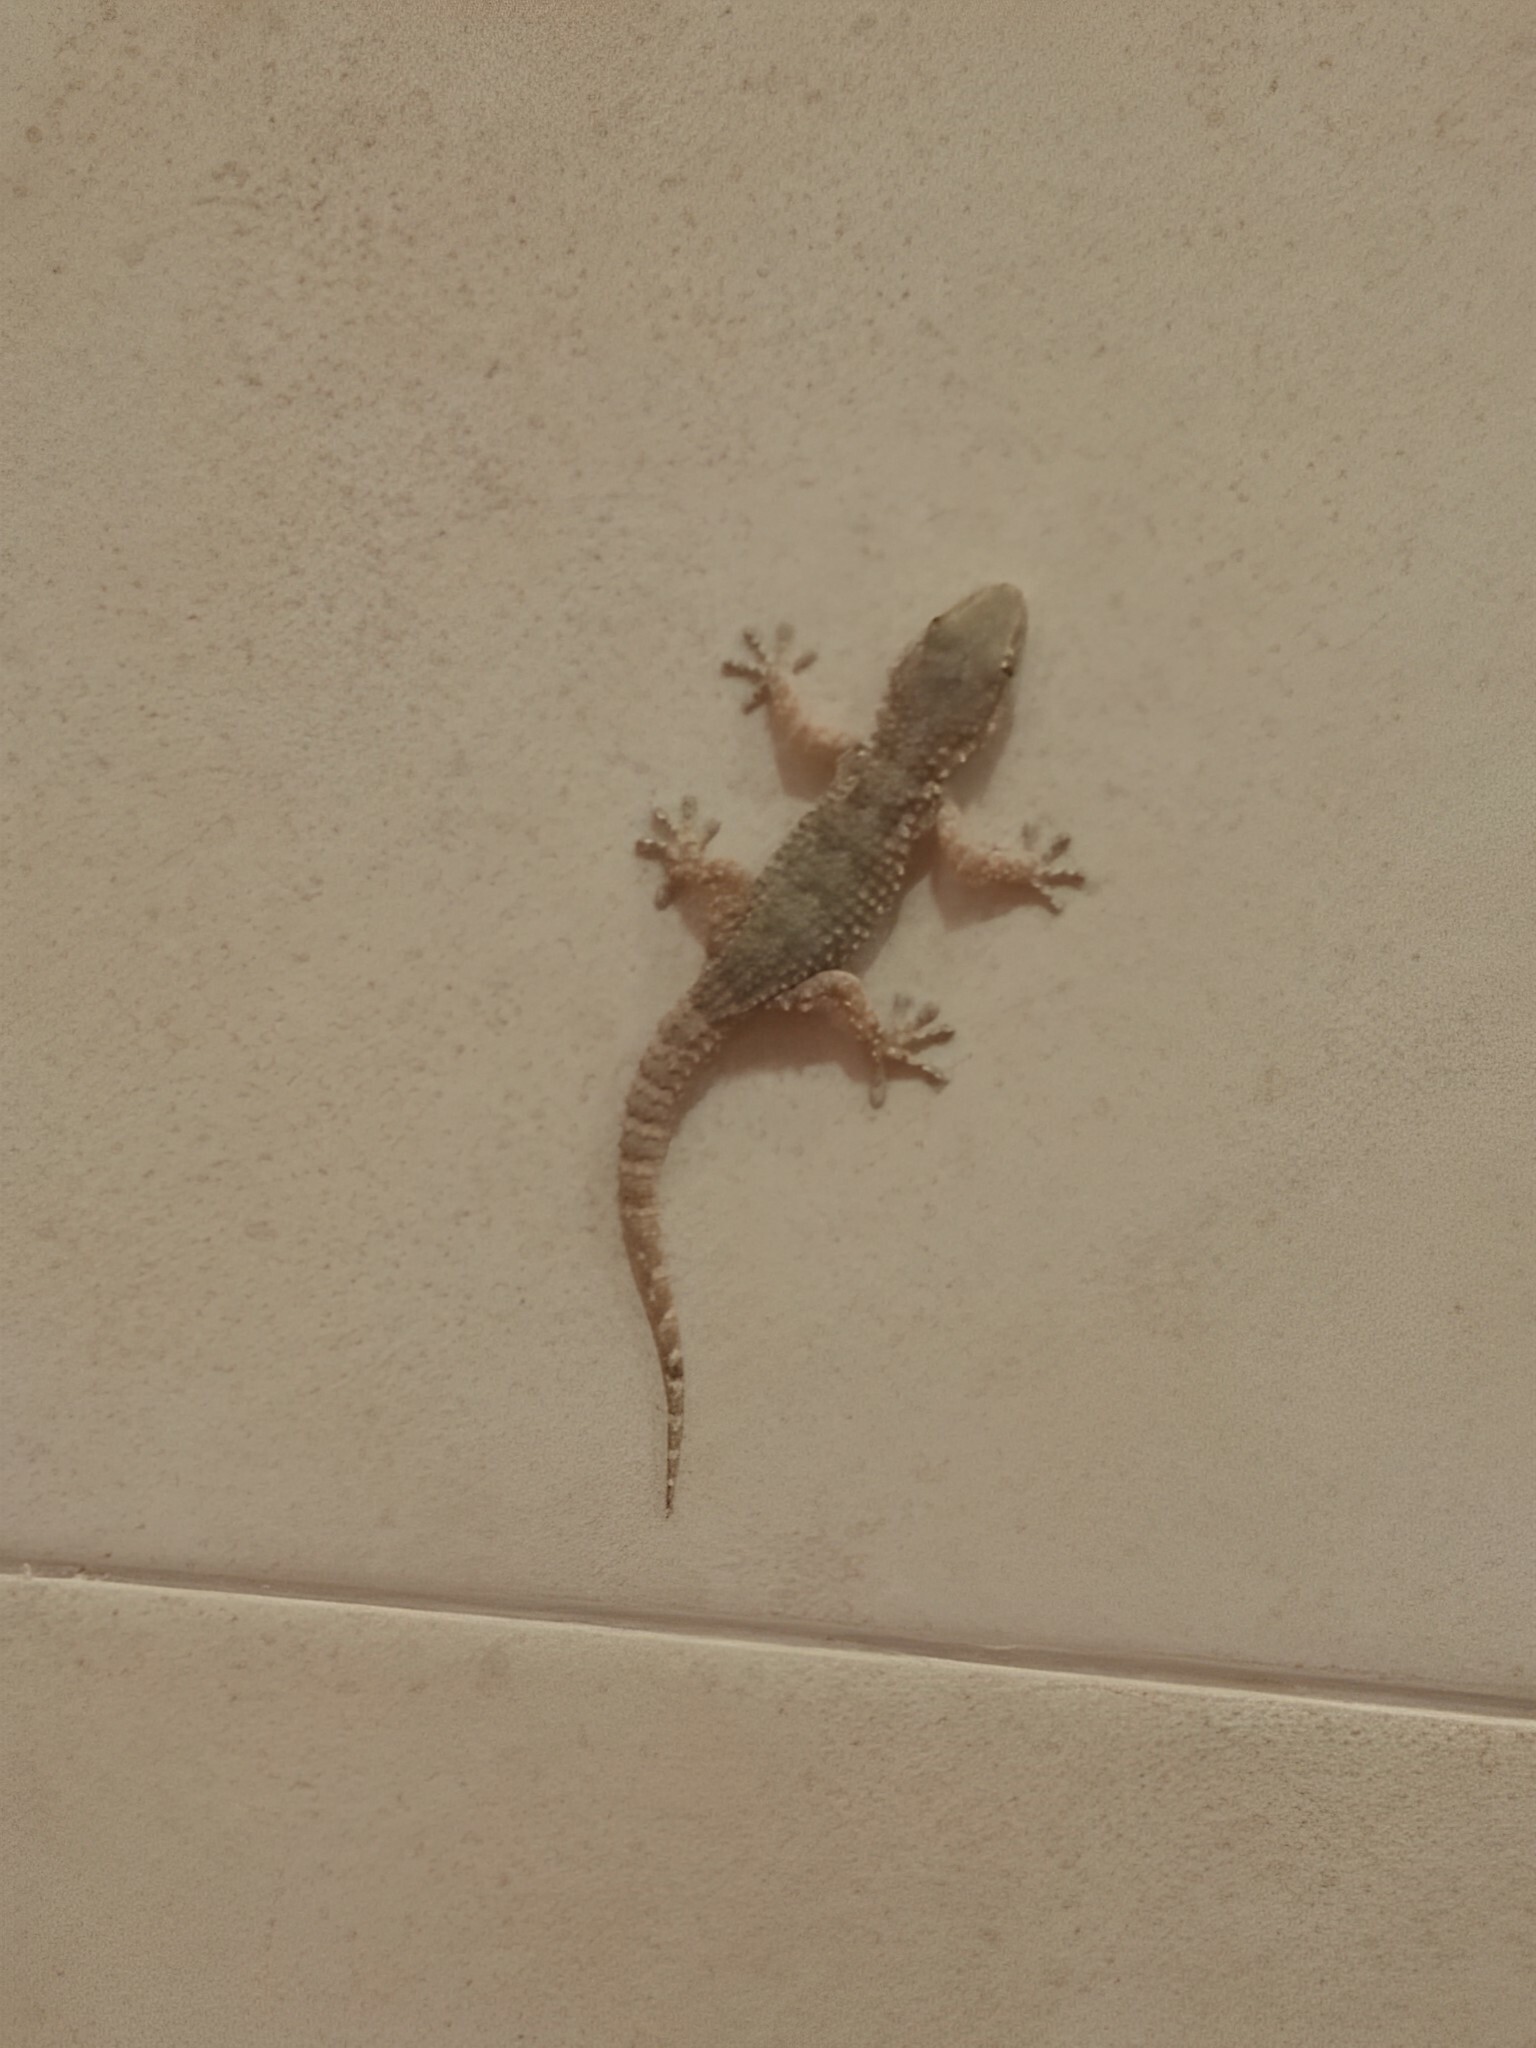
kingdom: Animalia
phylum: Chordata
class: Squamata
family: Phyllodactylidae
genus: Tarentola
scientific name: Tarentola mauritanica
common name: Moorish gecko
